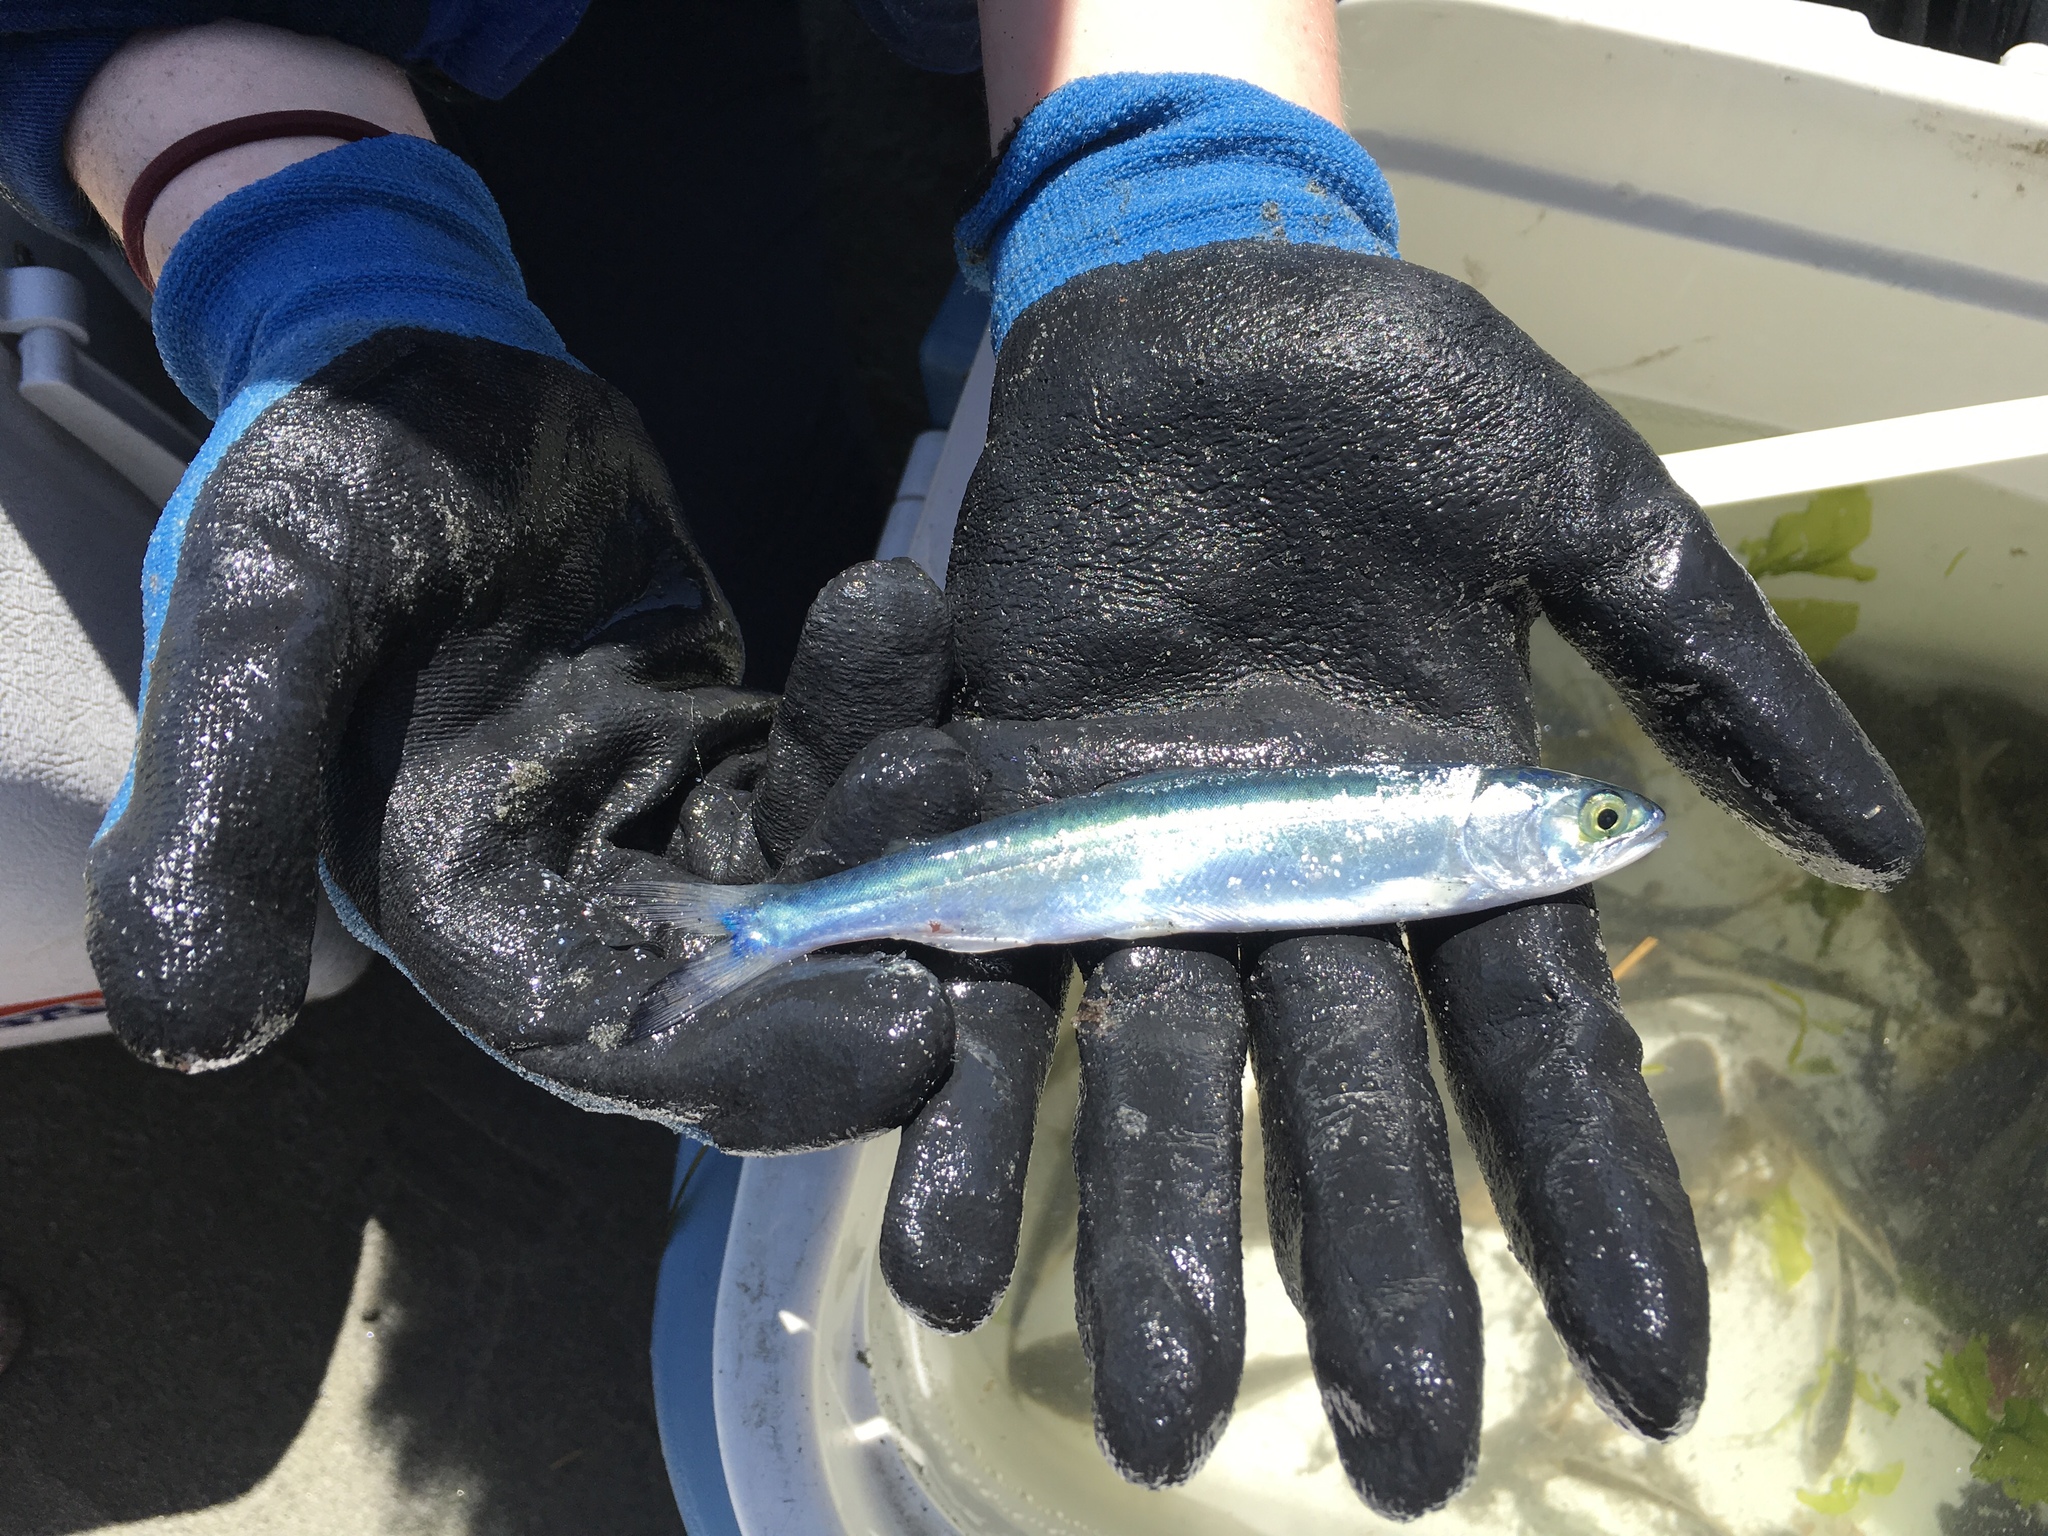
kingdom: Animalia
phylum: Chordata
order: Salmoniformes
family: Salmonidae
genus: Oncorhynchus
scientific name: Oncorhynchus gorbuscha
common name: Humpback salmon
